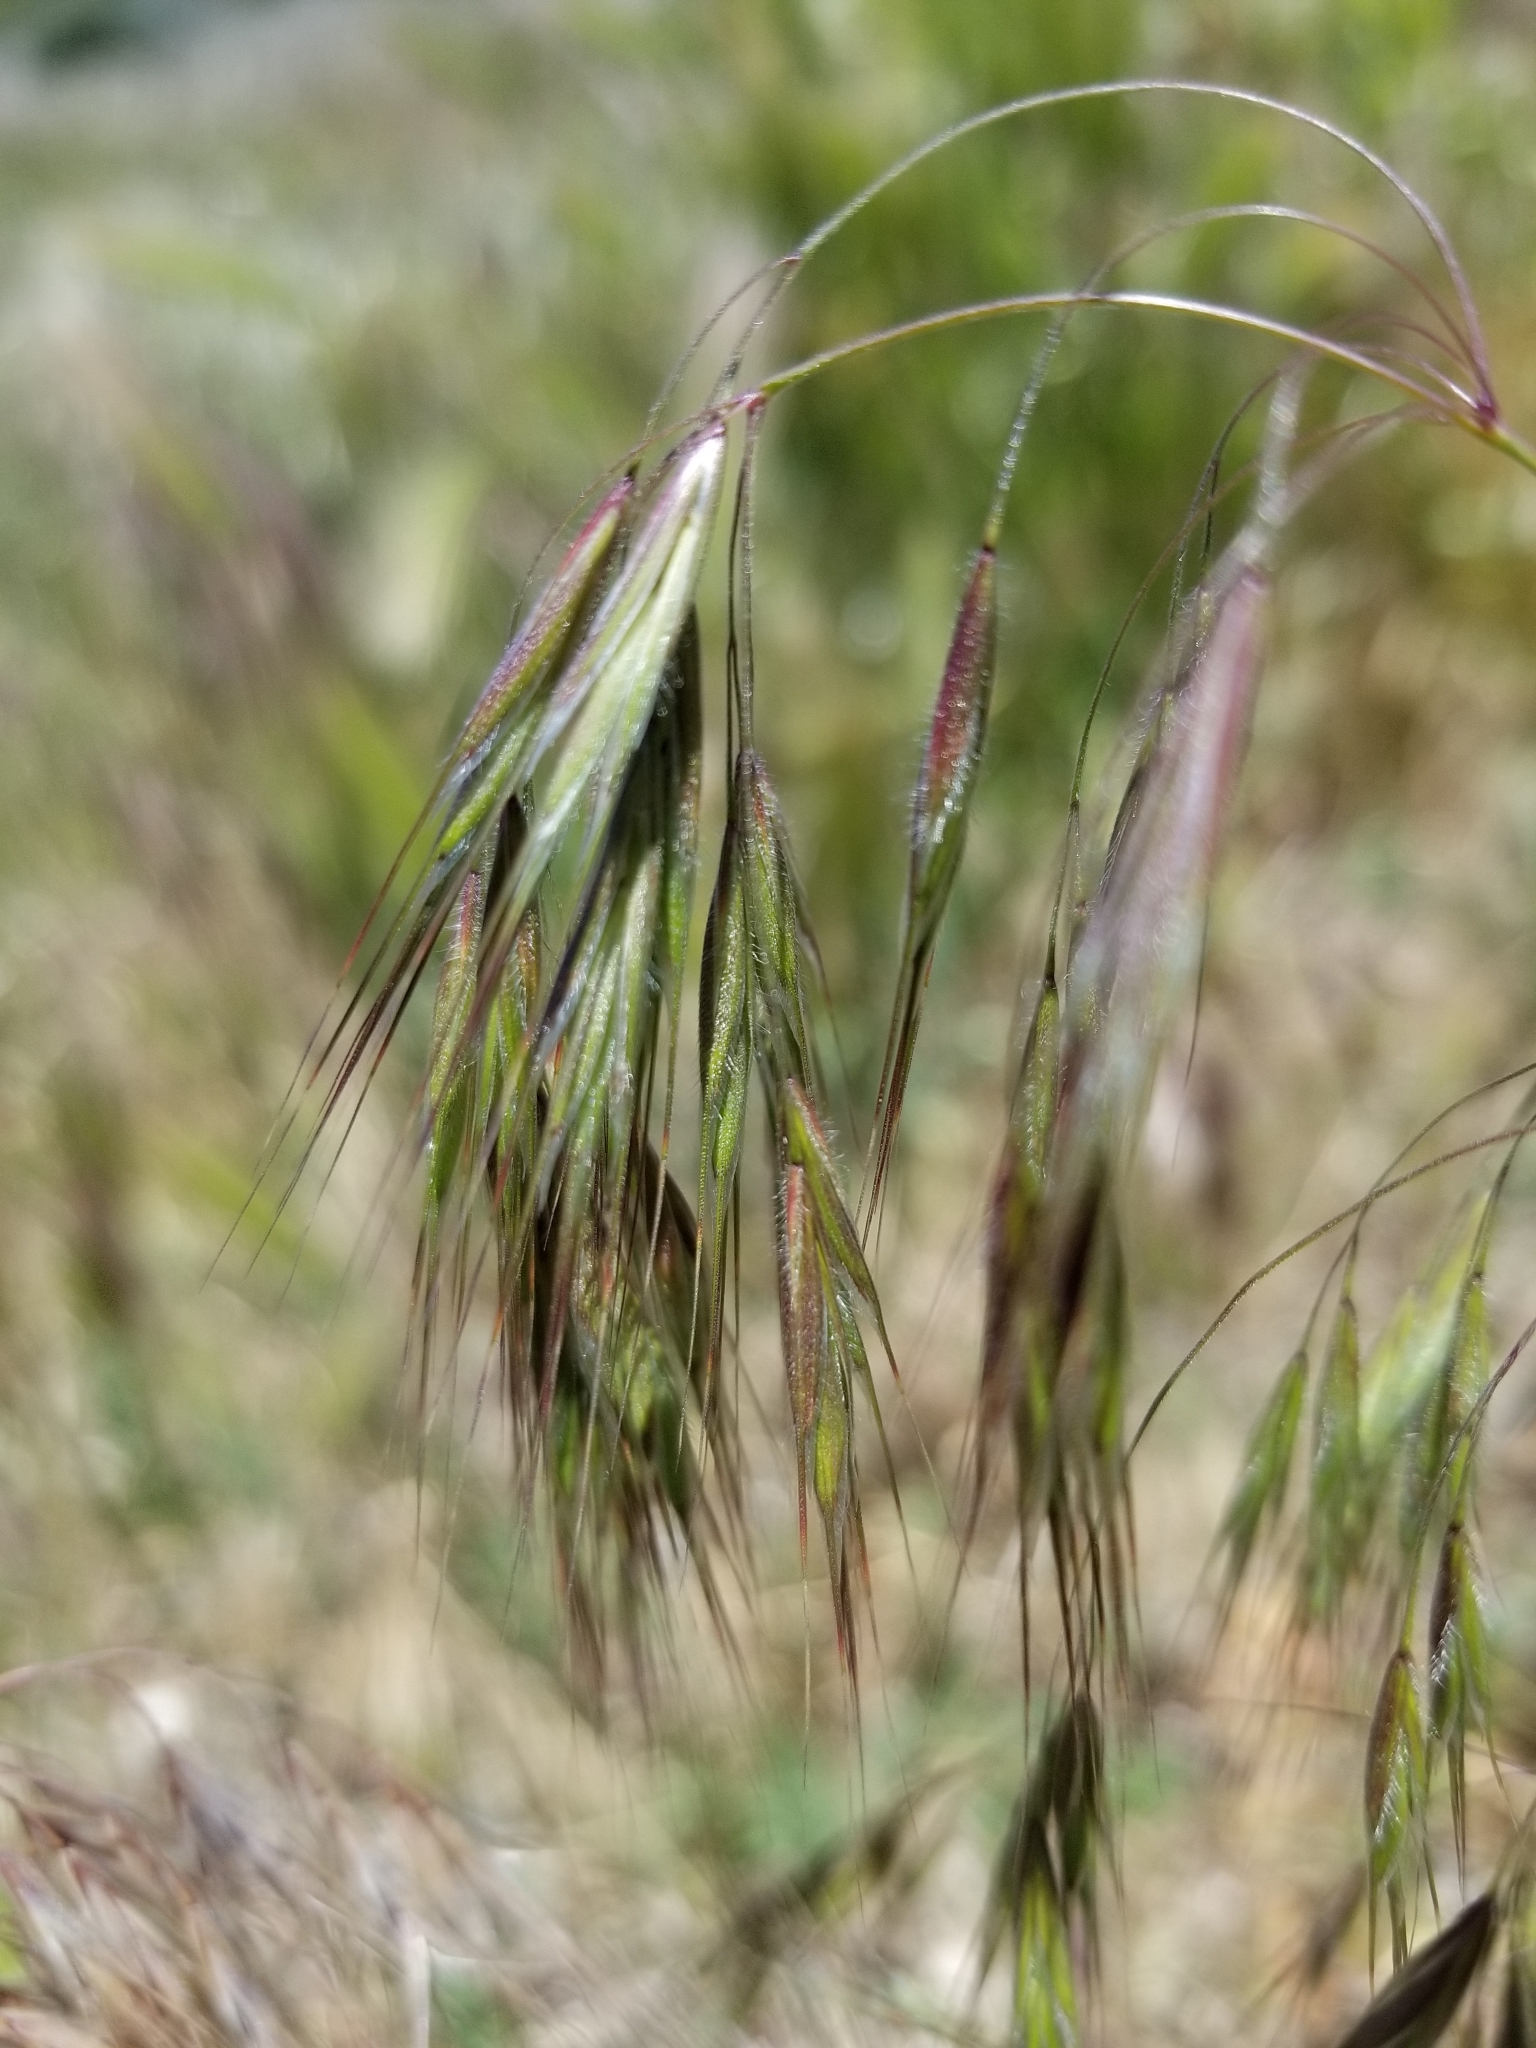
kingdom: Plantae
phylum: Tracheophyta
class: Liliopsida
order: Poales
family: Poaceae
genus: Bromus
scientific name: Bromus tectorum
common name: Cheatgrass
